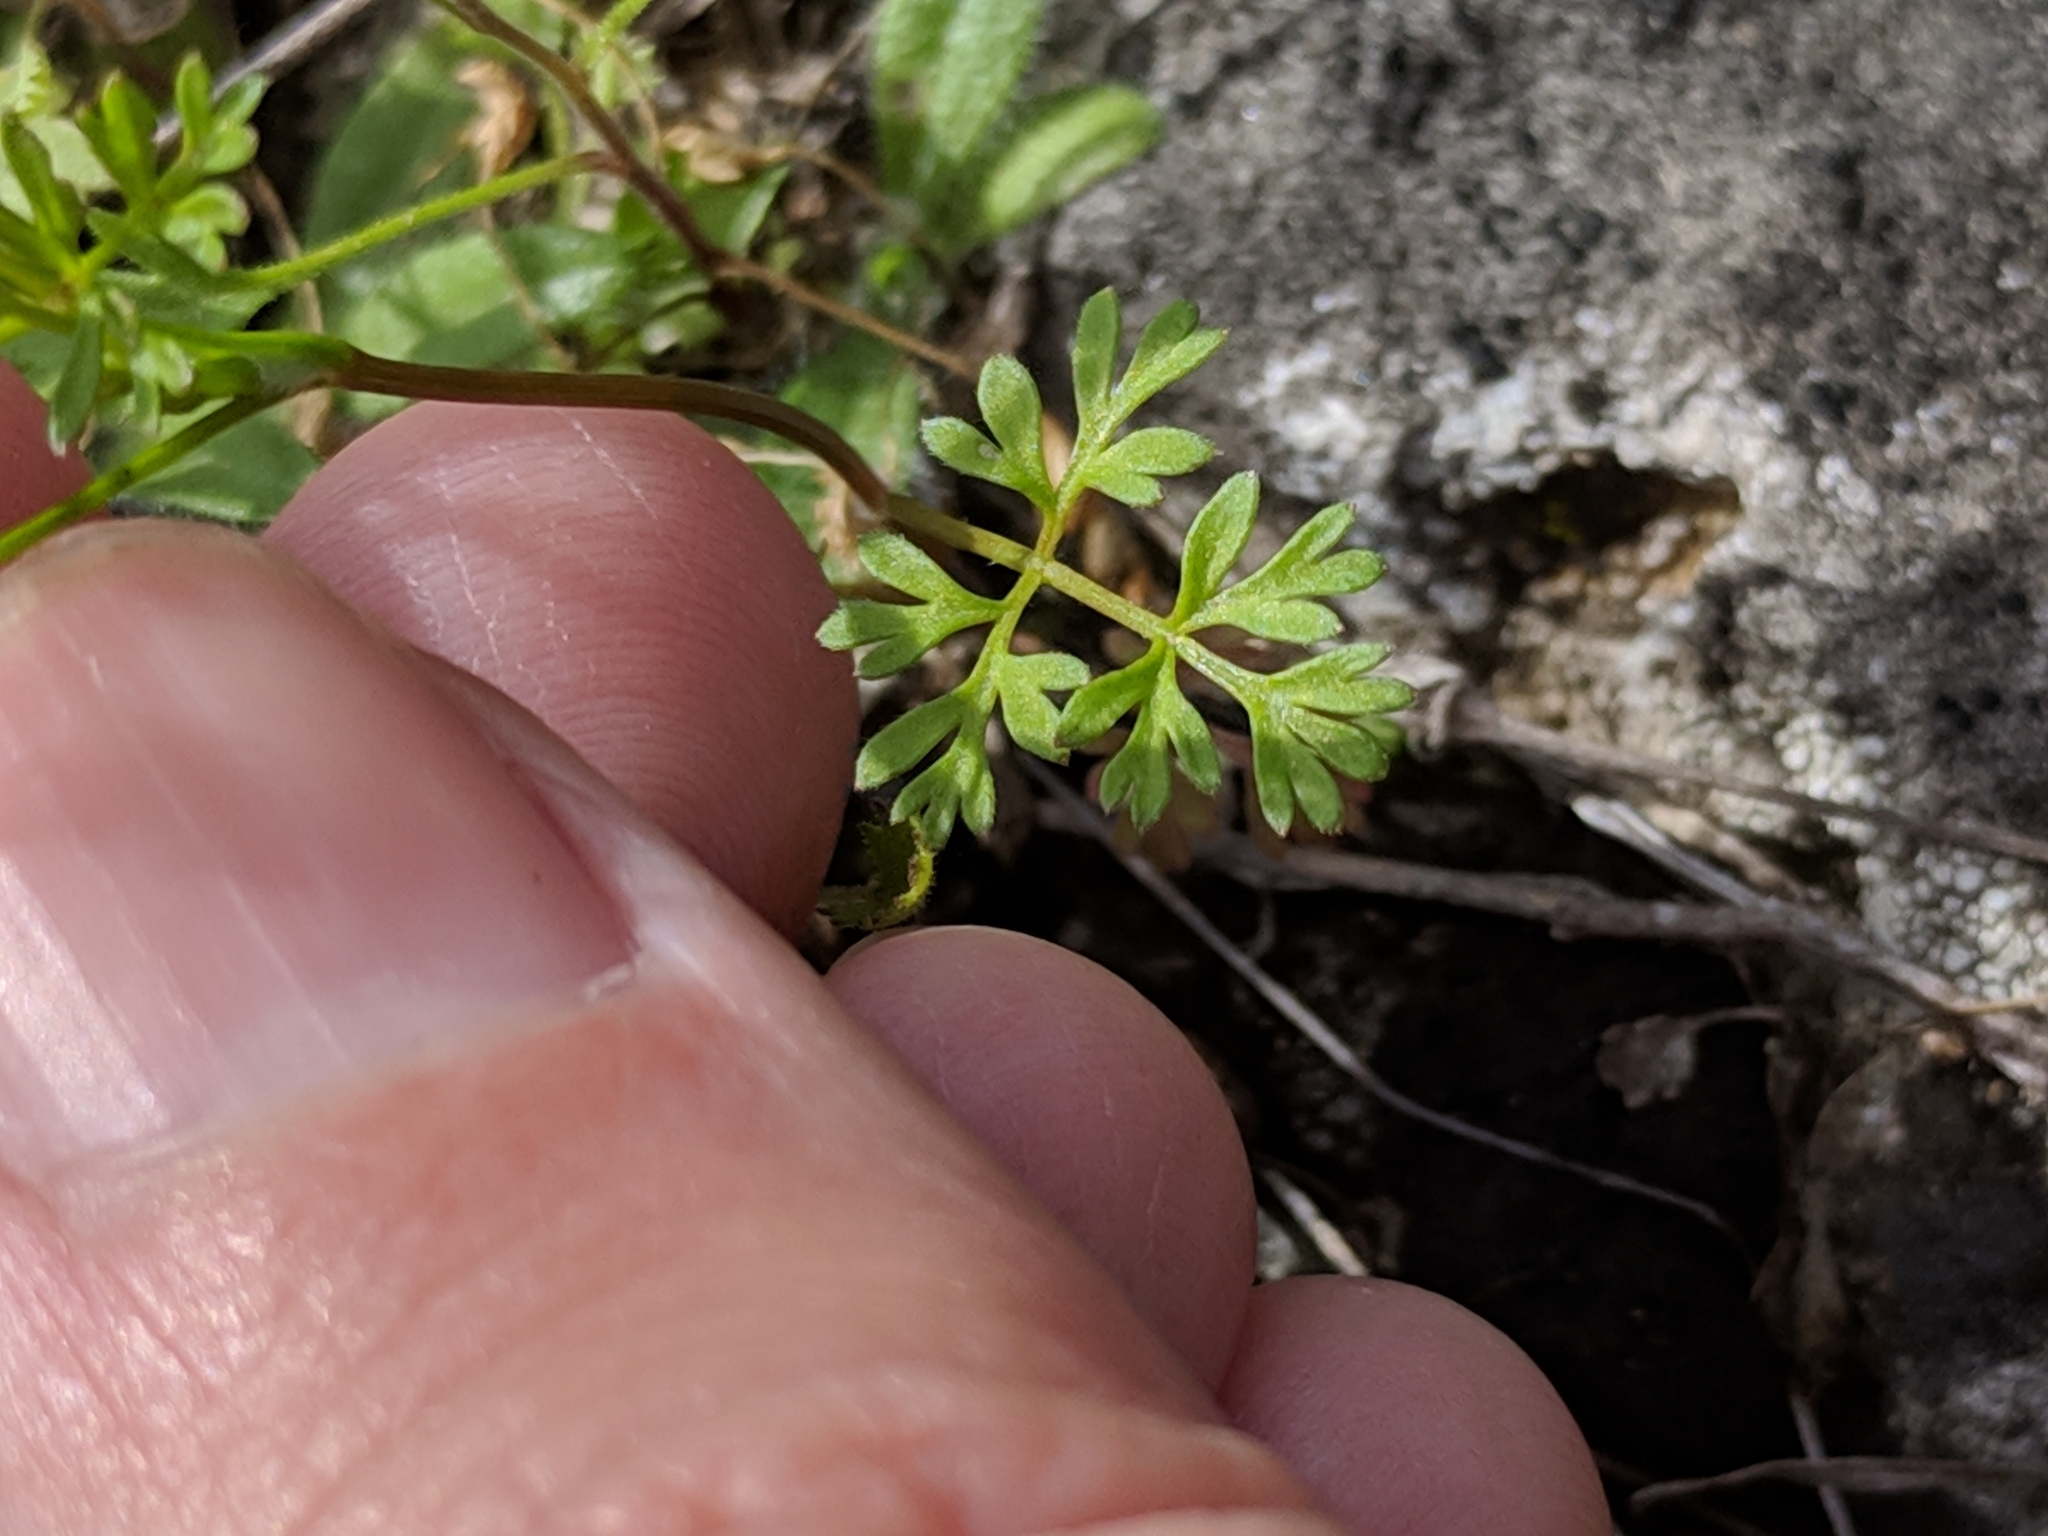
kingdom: Plantae
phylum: Tracheophyta
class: Magnoliopsida
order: Apiales
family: Apiaceae
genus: Chaerophyllum
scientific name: Chaerophyllum tainturieri
